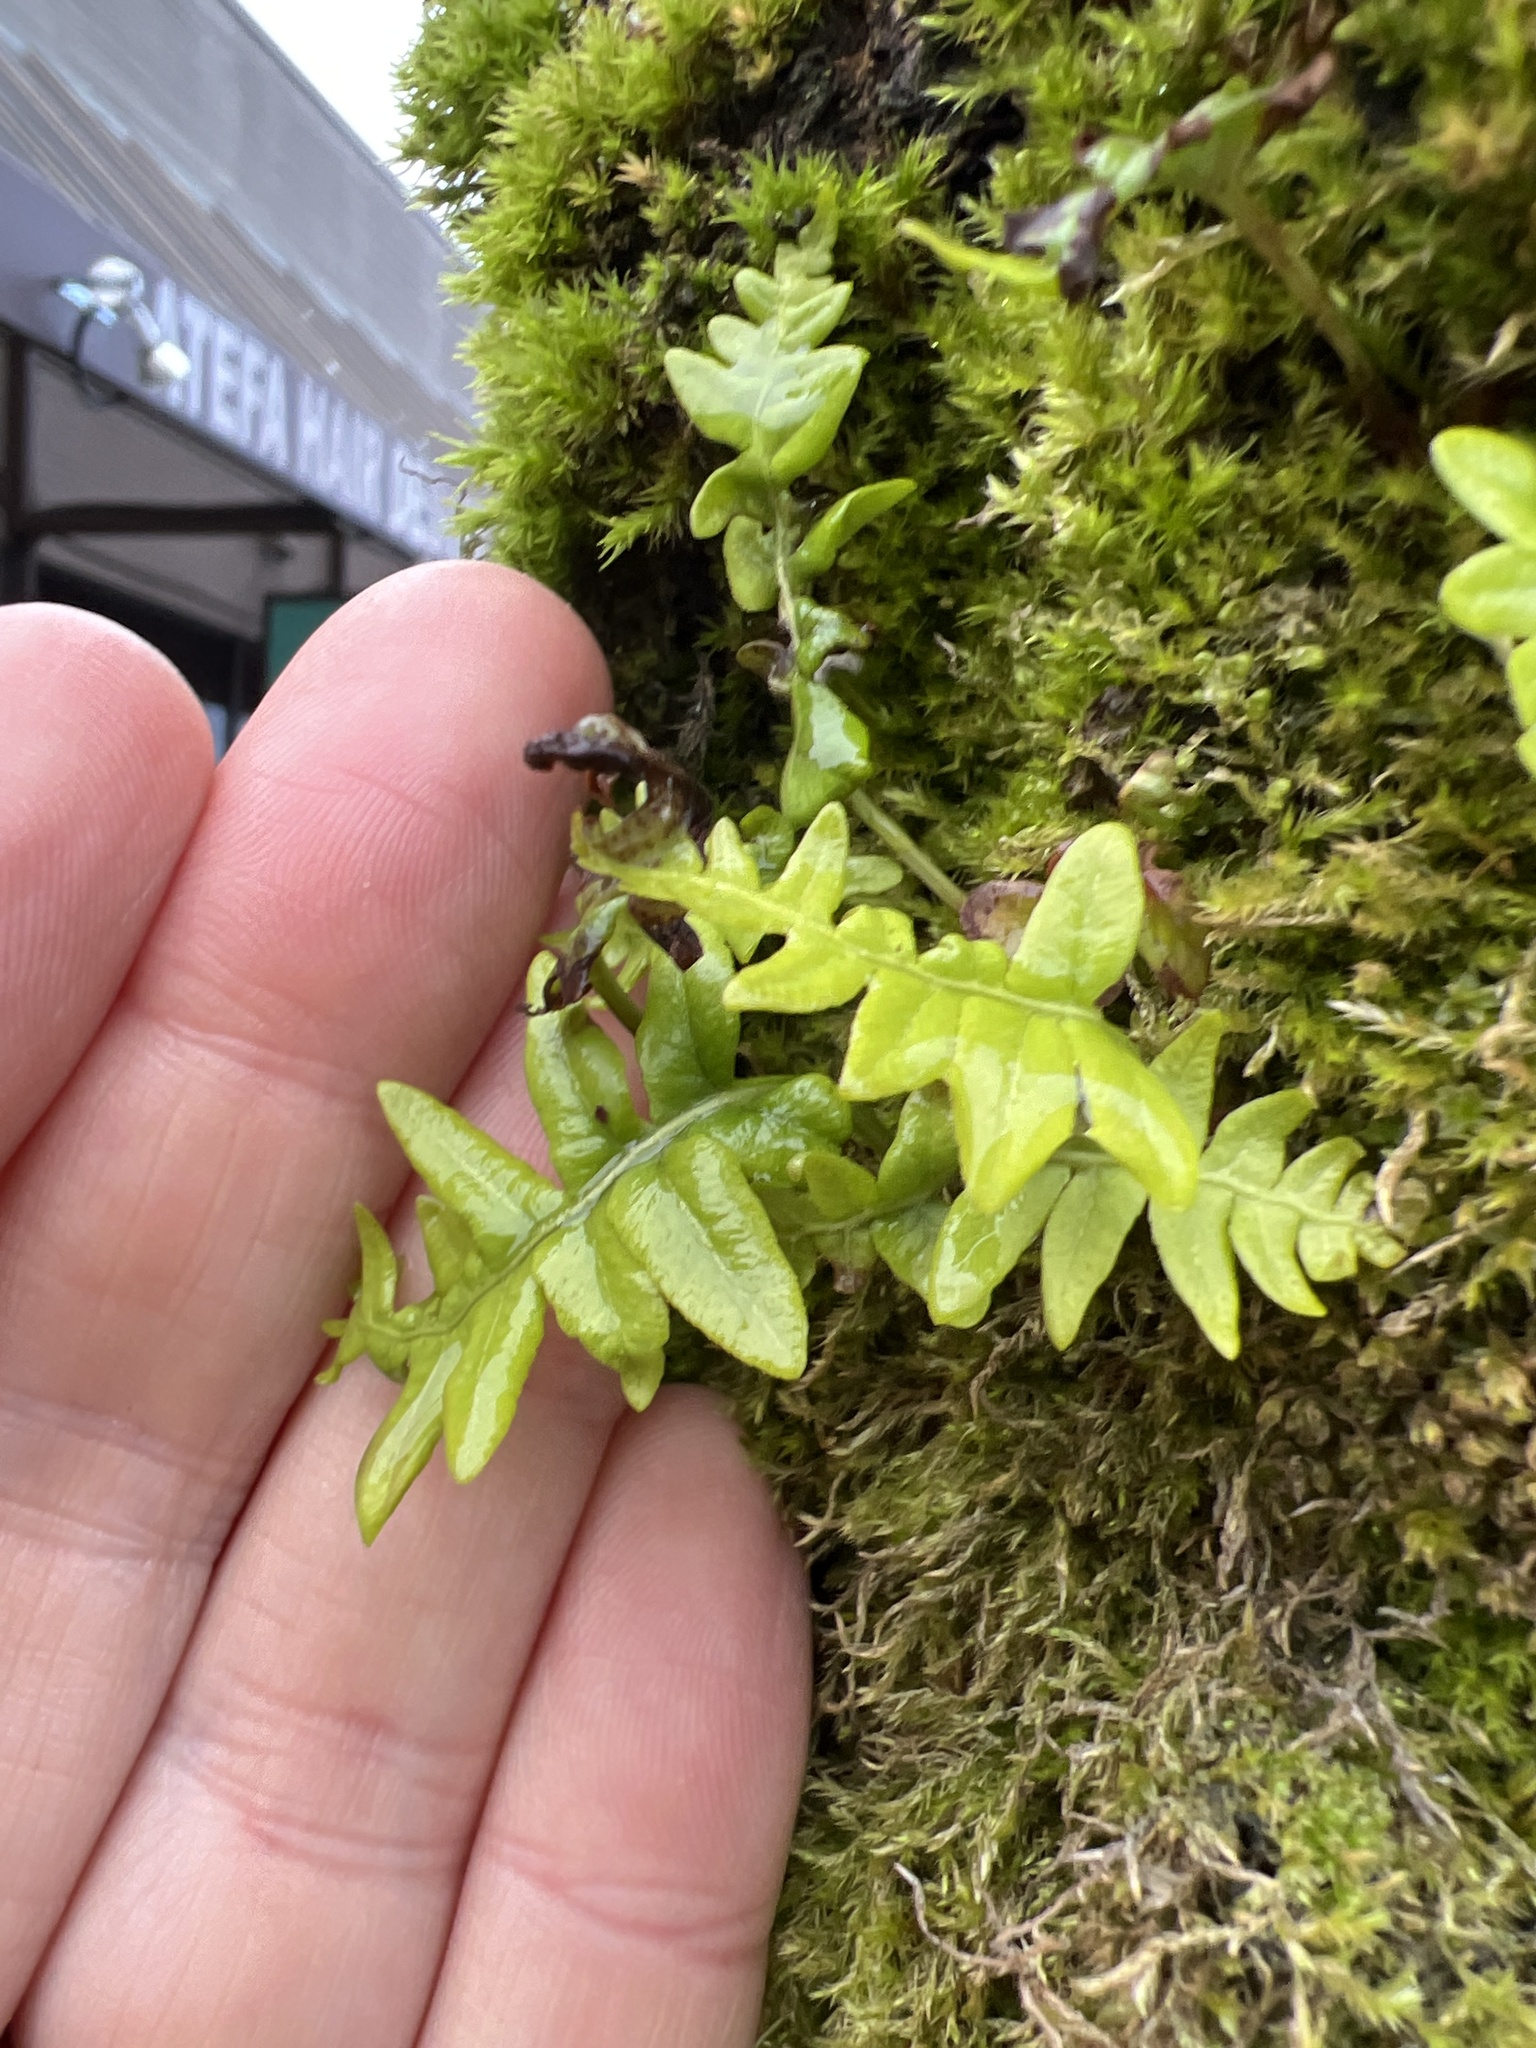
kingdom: Plantae
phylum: Tracheophyta
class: Polypodiopsida
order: Polypodiales
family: Polypodiaceae
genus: Polypodium
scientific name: Polypodium glycyrrhiza
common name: Licorice fern
